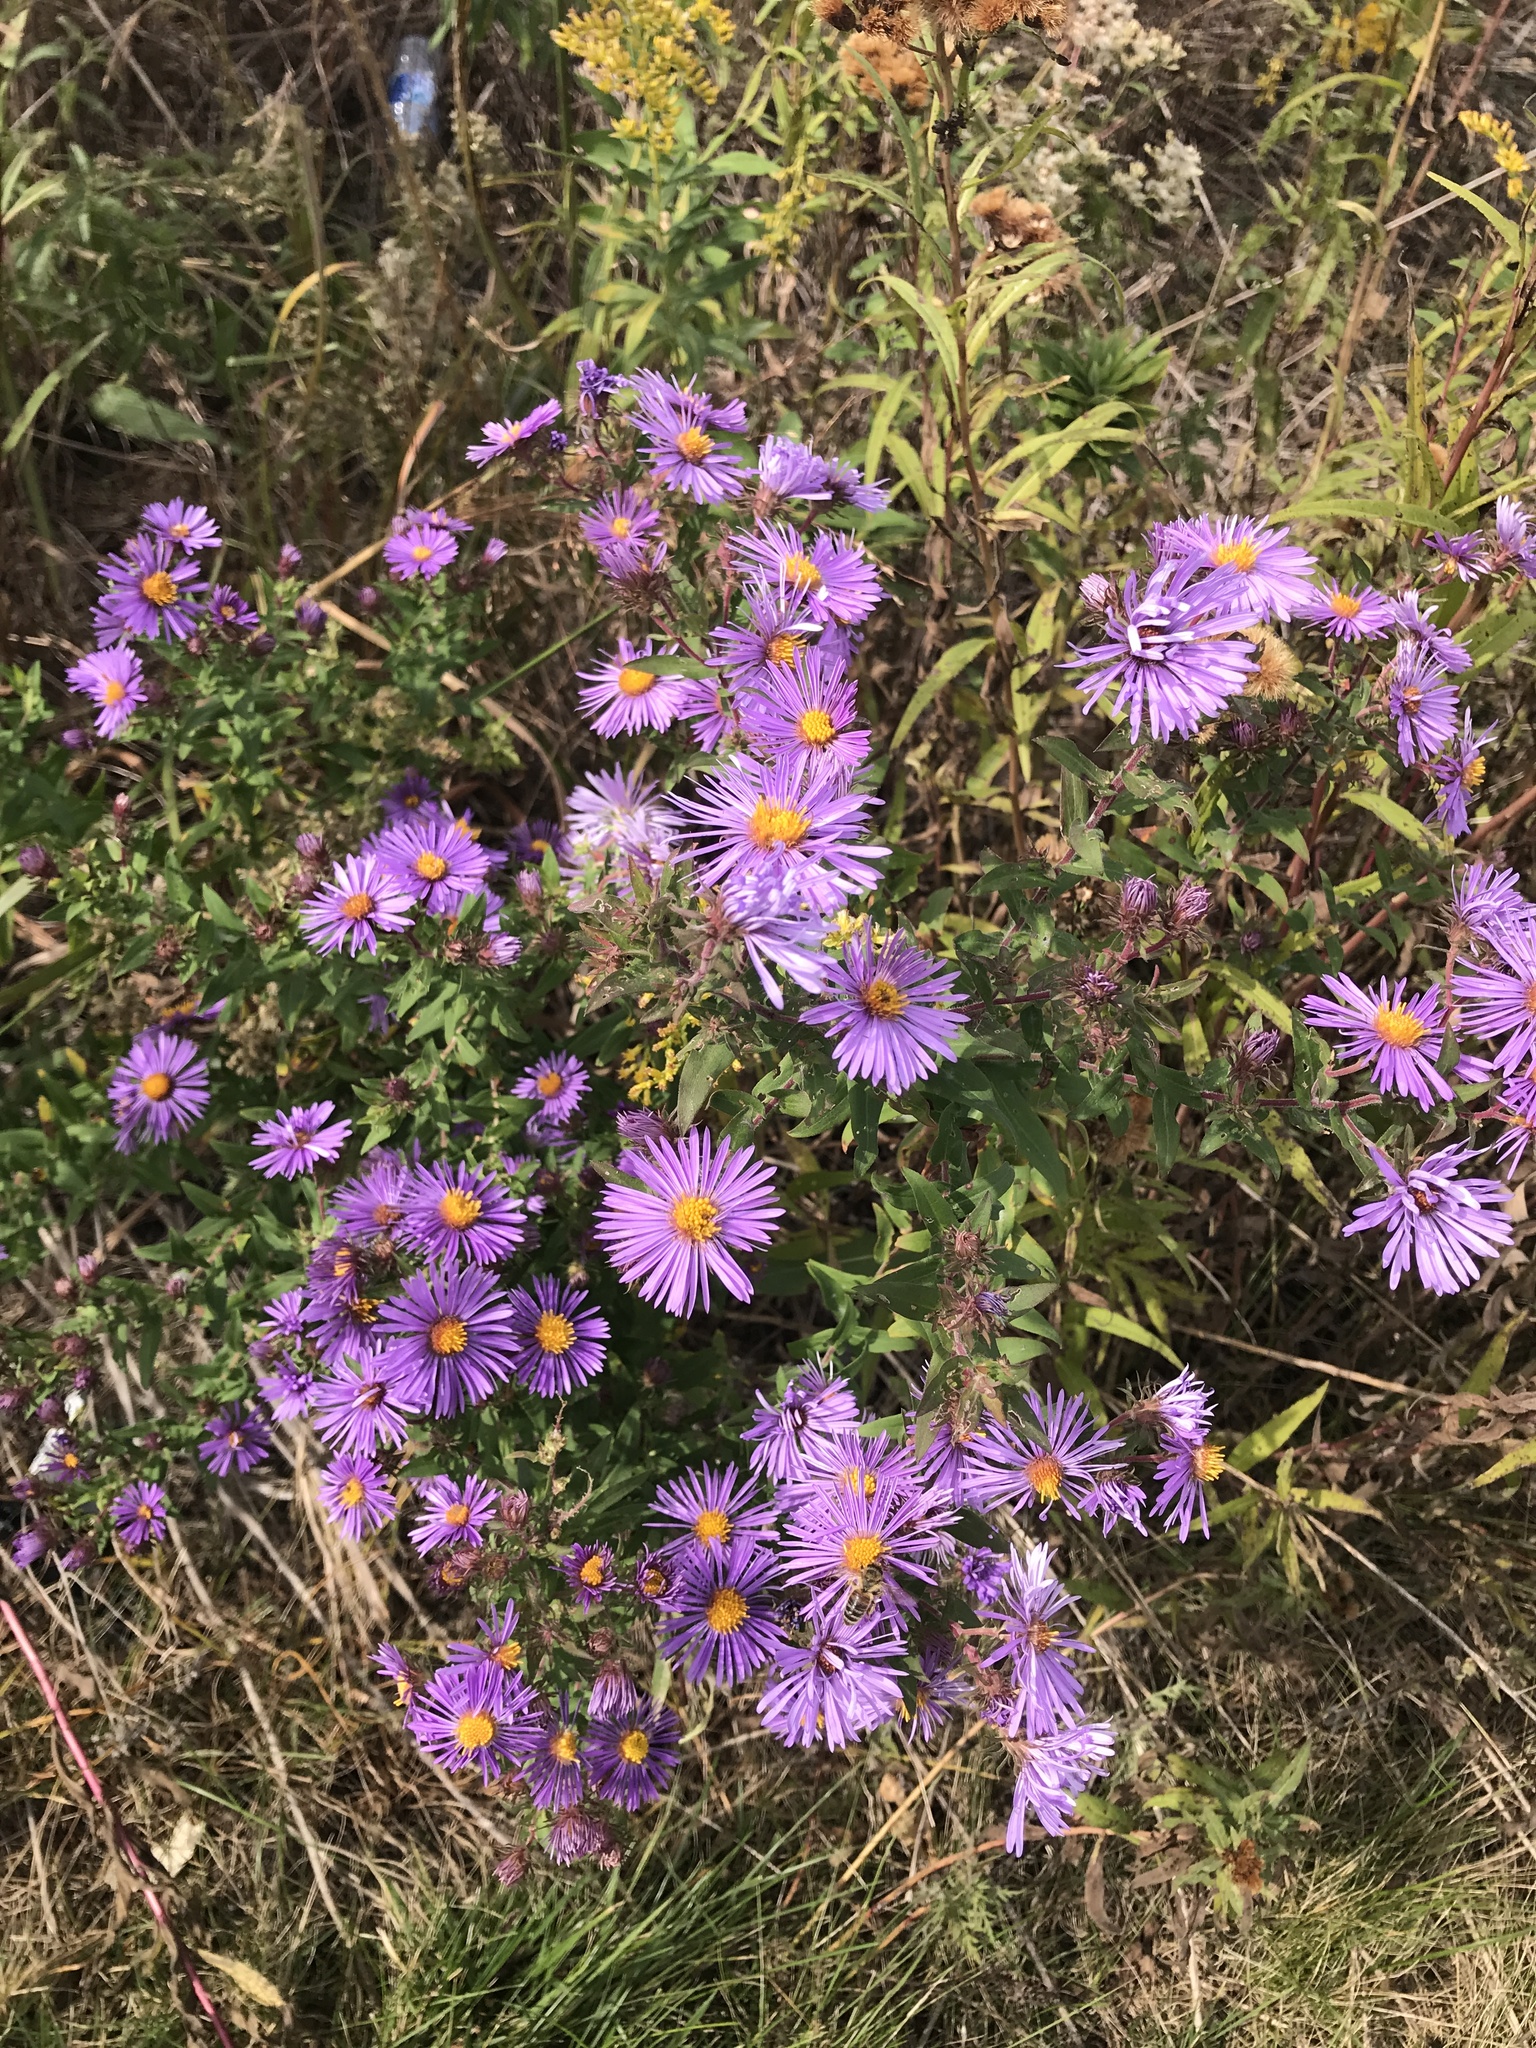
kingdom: Plantae
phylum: Tracheophyta
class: Magnoliopsida
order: Asterales
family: Asteraceae
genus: Symphyotrichum
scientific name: Symphyotrichum novae-angliae
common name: Michaelmas daisy
